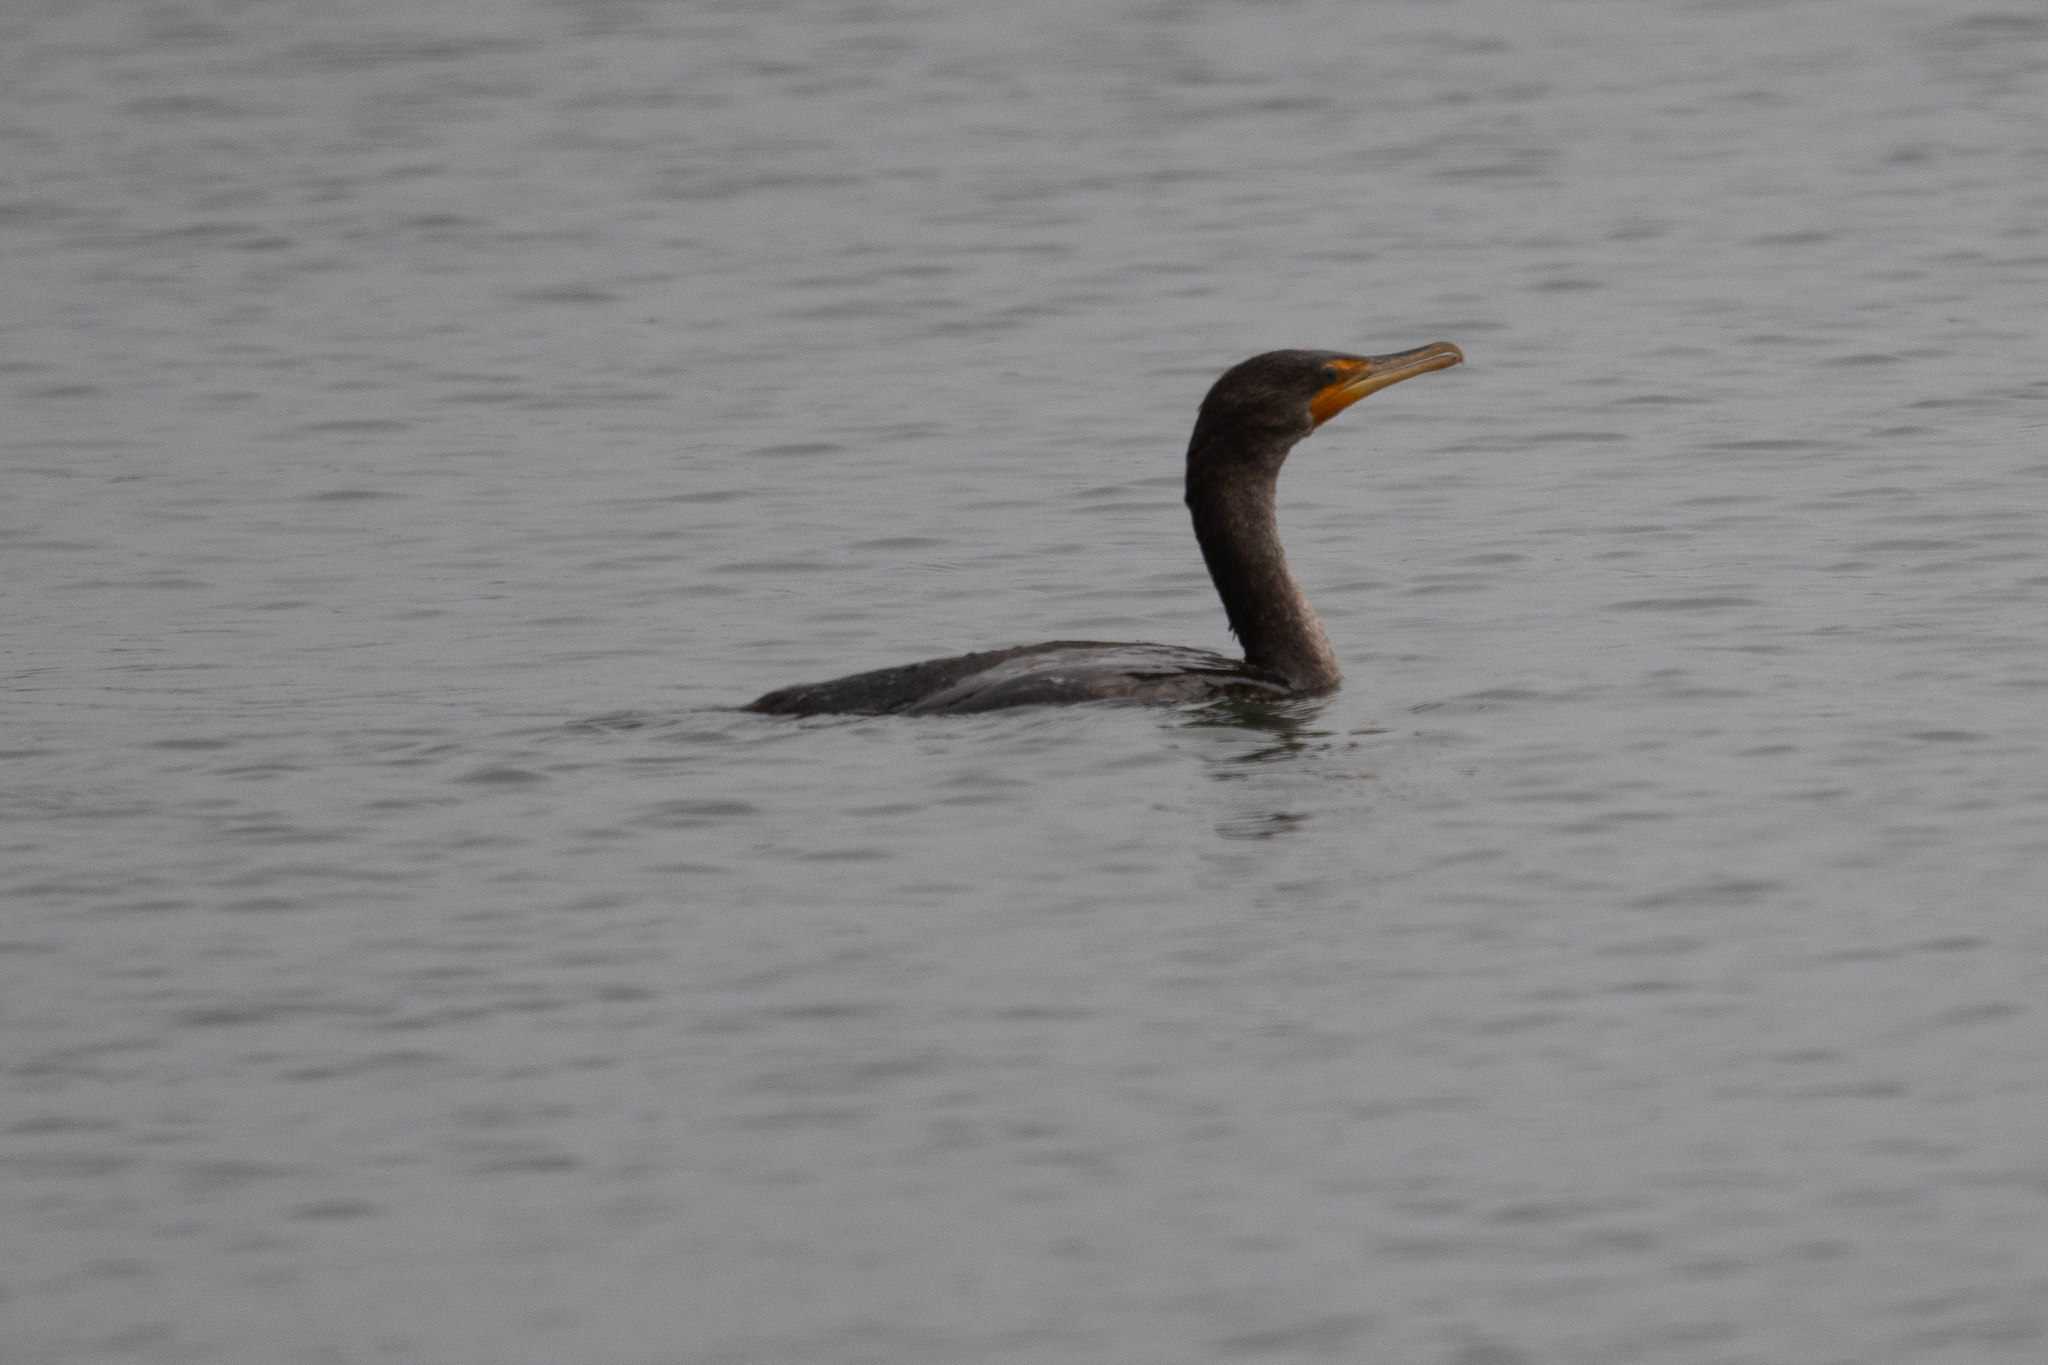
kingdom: Animalia
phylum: Chordata
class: Aves
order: Suliformes
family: Phalacrocoracidae
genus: Phalacrocorax
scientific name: Phalacrocorax auritus
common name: Double-crested cormorant
